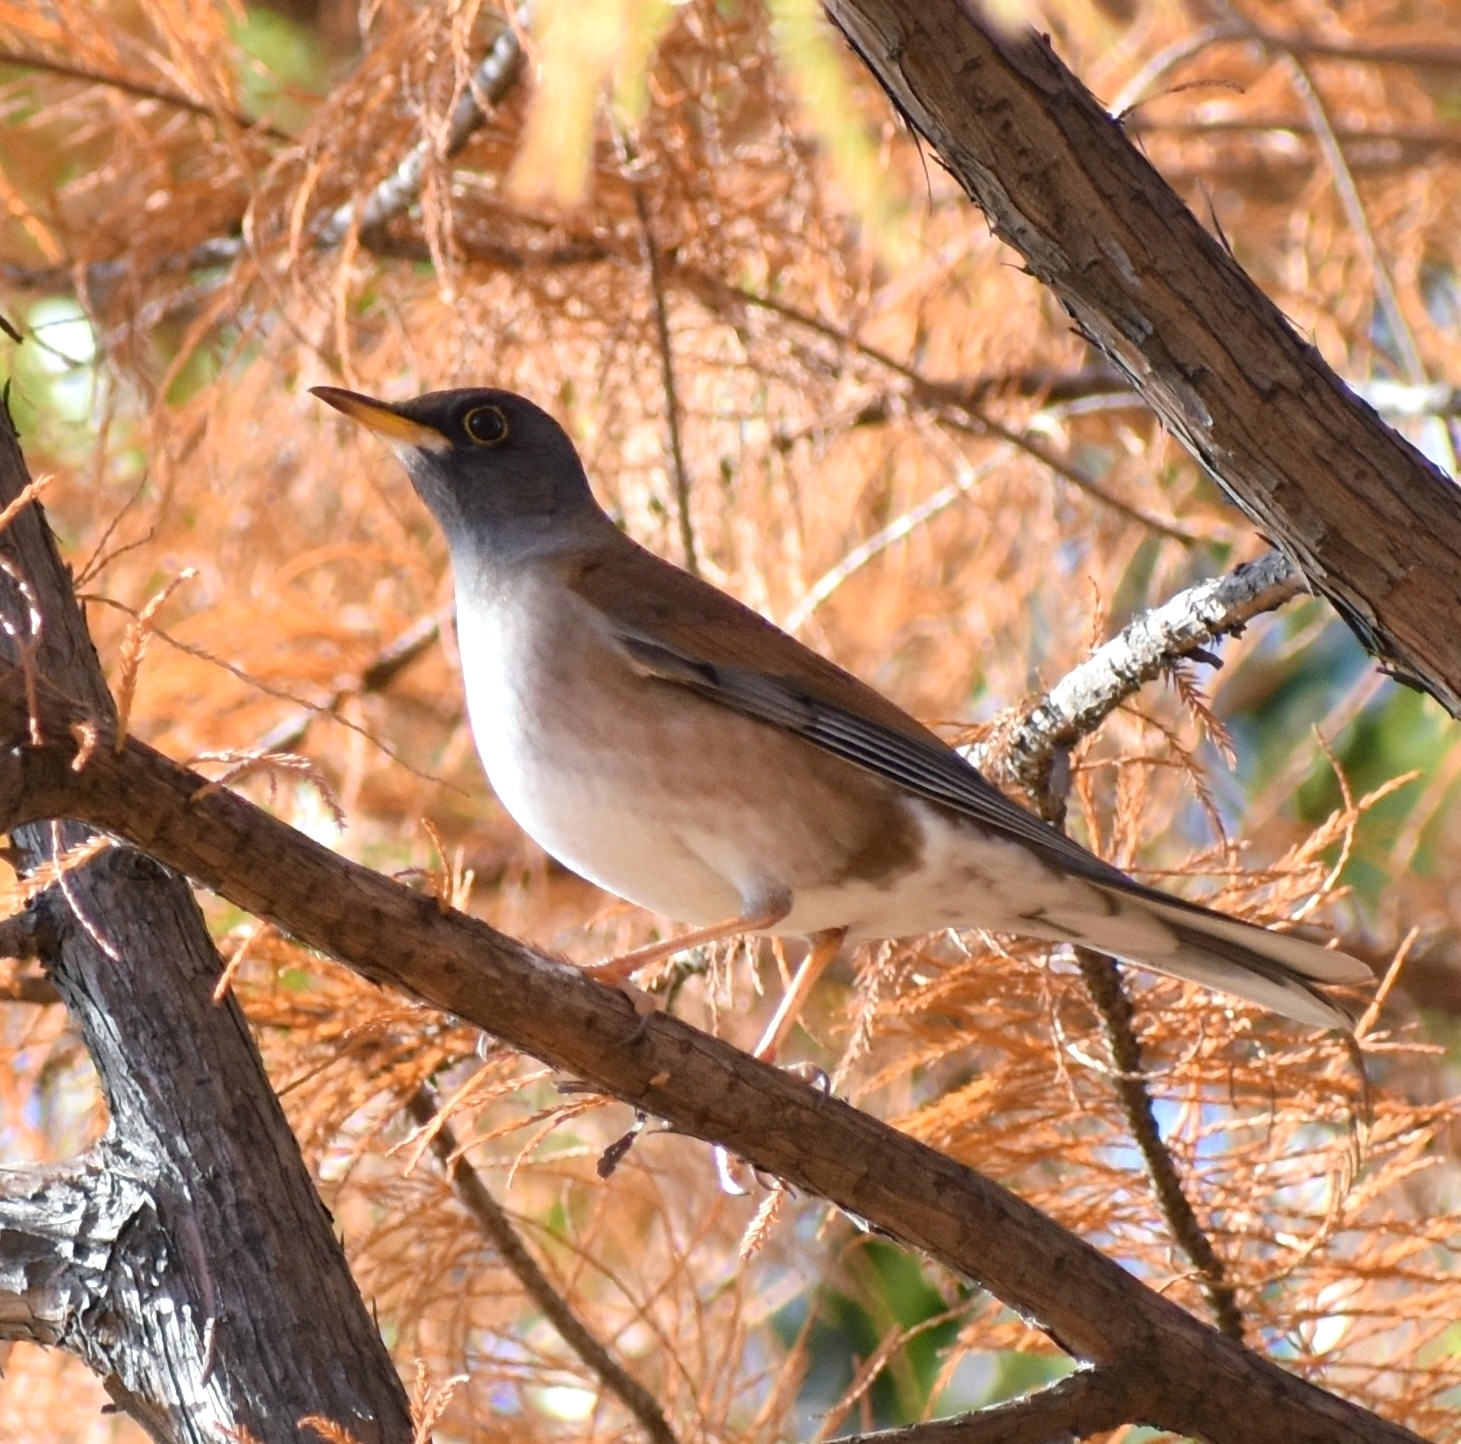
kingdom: Animalia
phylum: Chordata
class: Aves
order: Passeriformes
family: Turdidae
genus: Turdus
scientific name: Turdus pallidus
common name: Pale thrush
